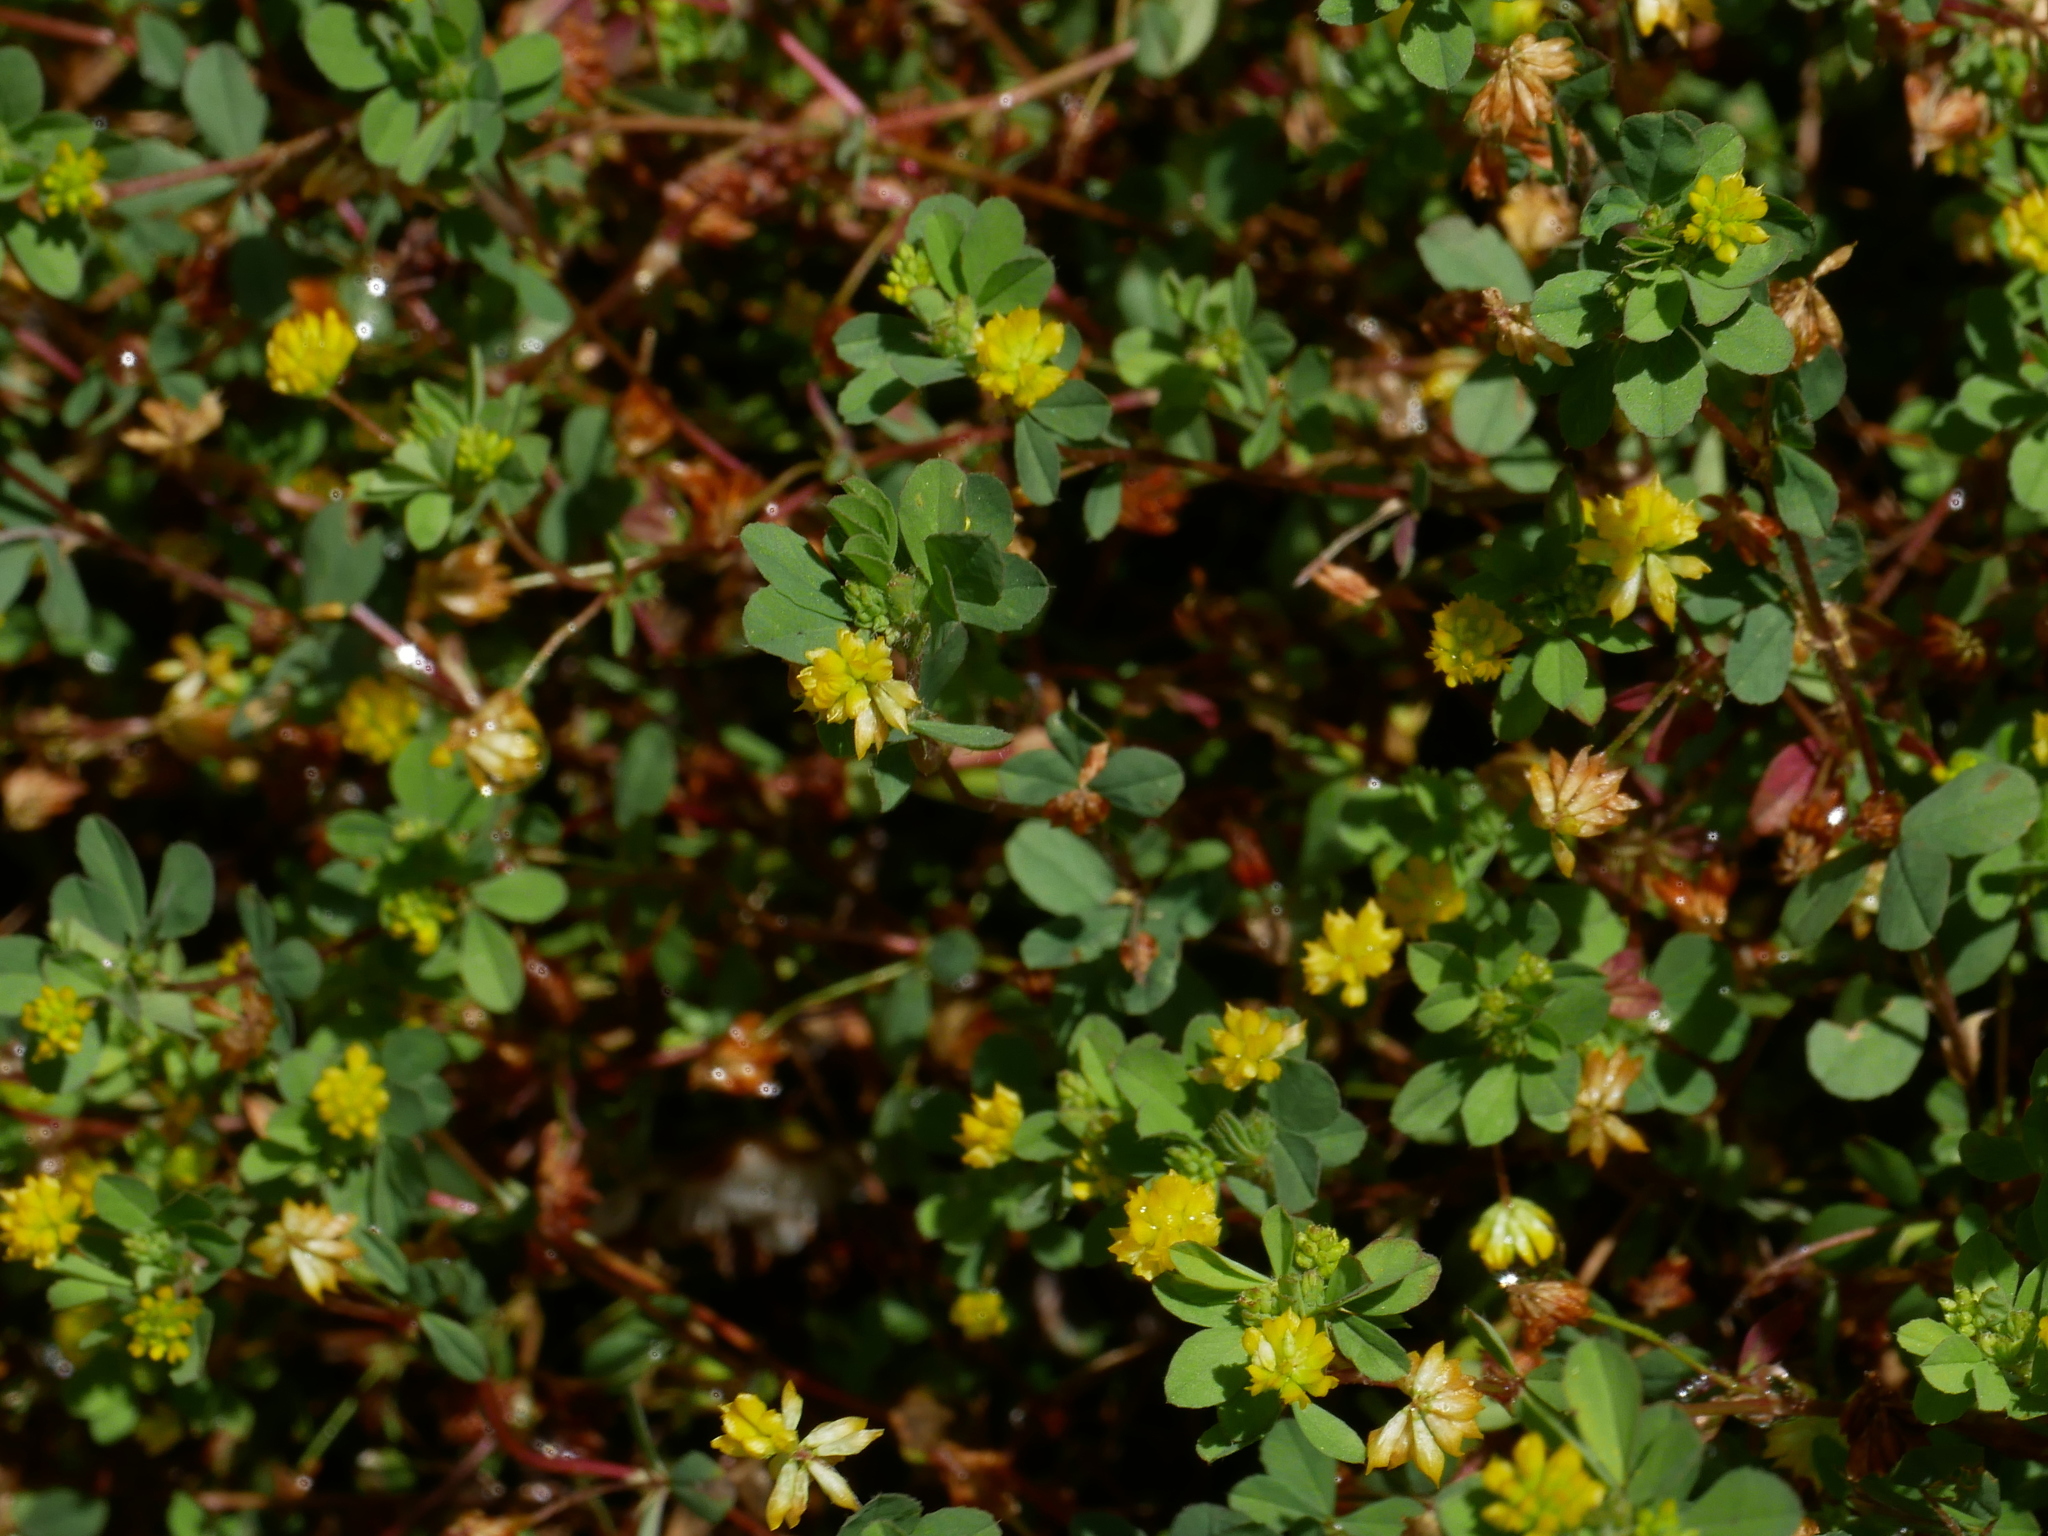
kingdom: Plantae
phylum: Tracheophyta
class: Magnoliopsida
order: Fabales
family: Fabaceae
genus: Trifolium
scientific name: Trifolium dubium
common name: Suckling clover
